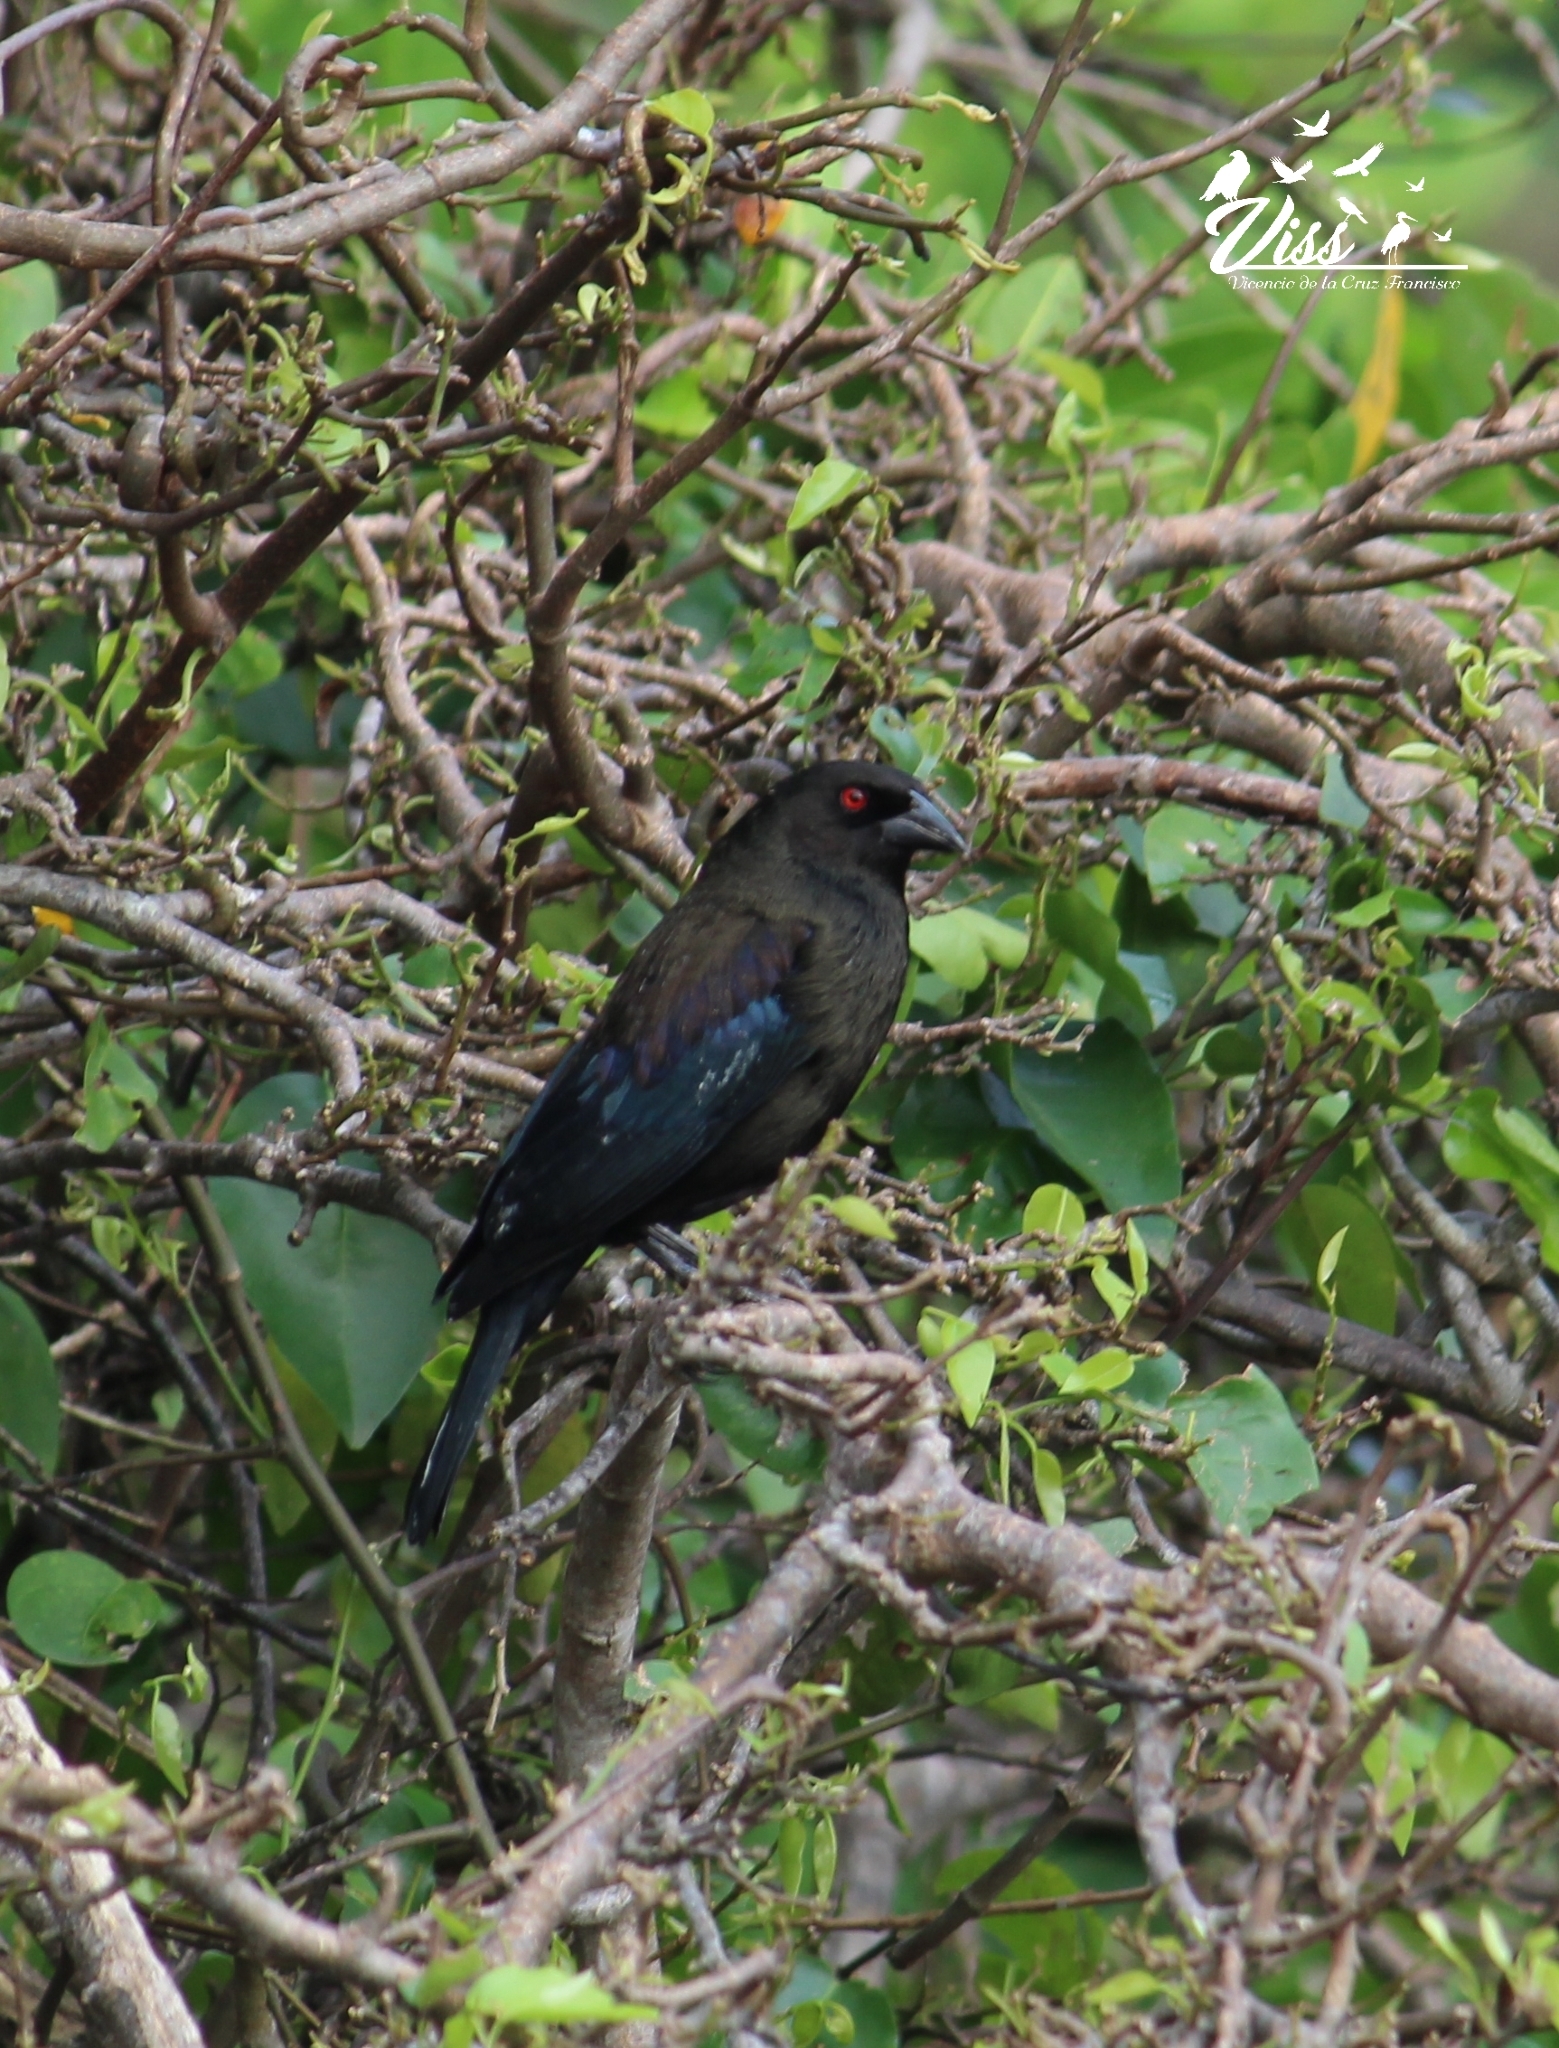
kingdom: Animalia
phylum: Chordata
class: Aves
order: Passeriformes
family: Icteridae
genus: Molothrus
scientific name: Molothrus aeneus
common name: Bronzed cowbird
